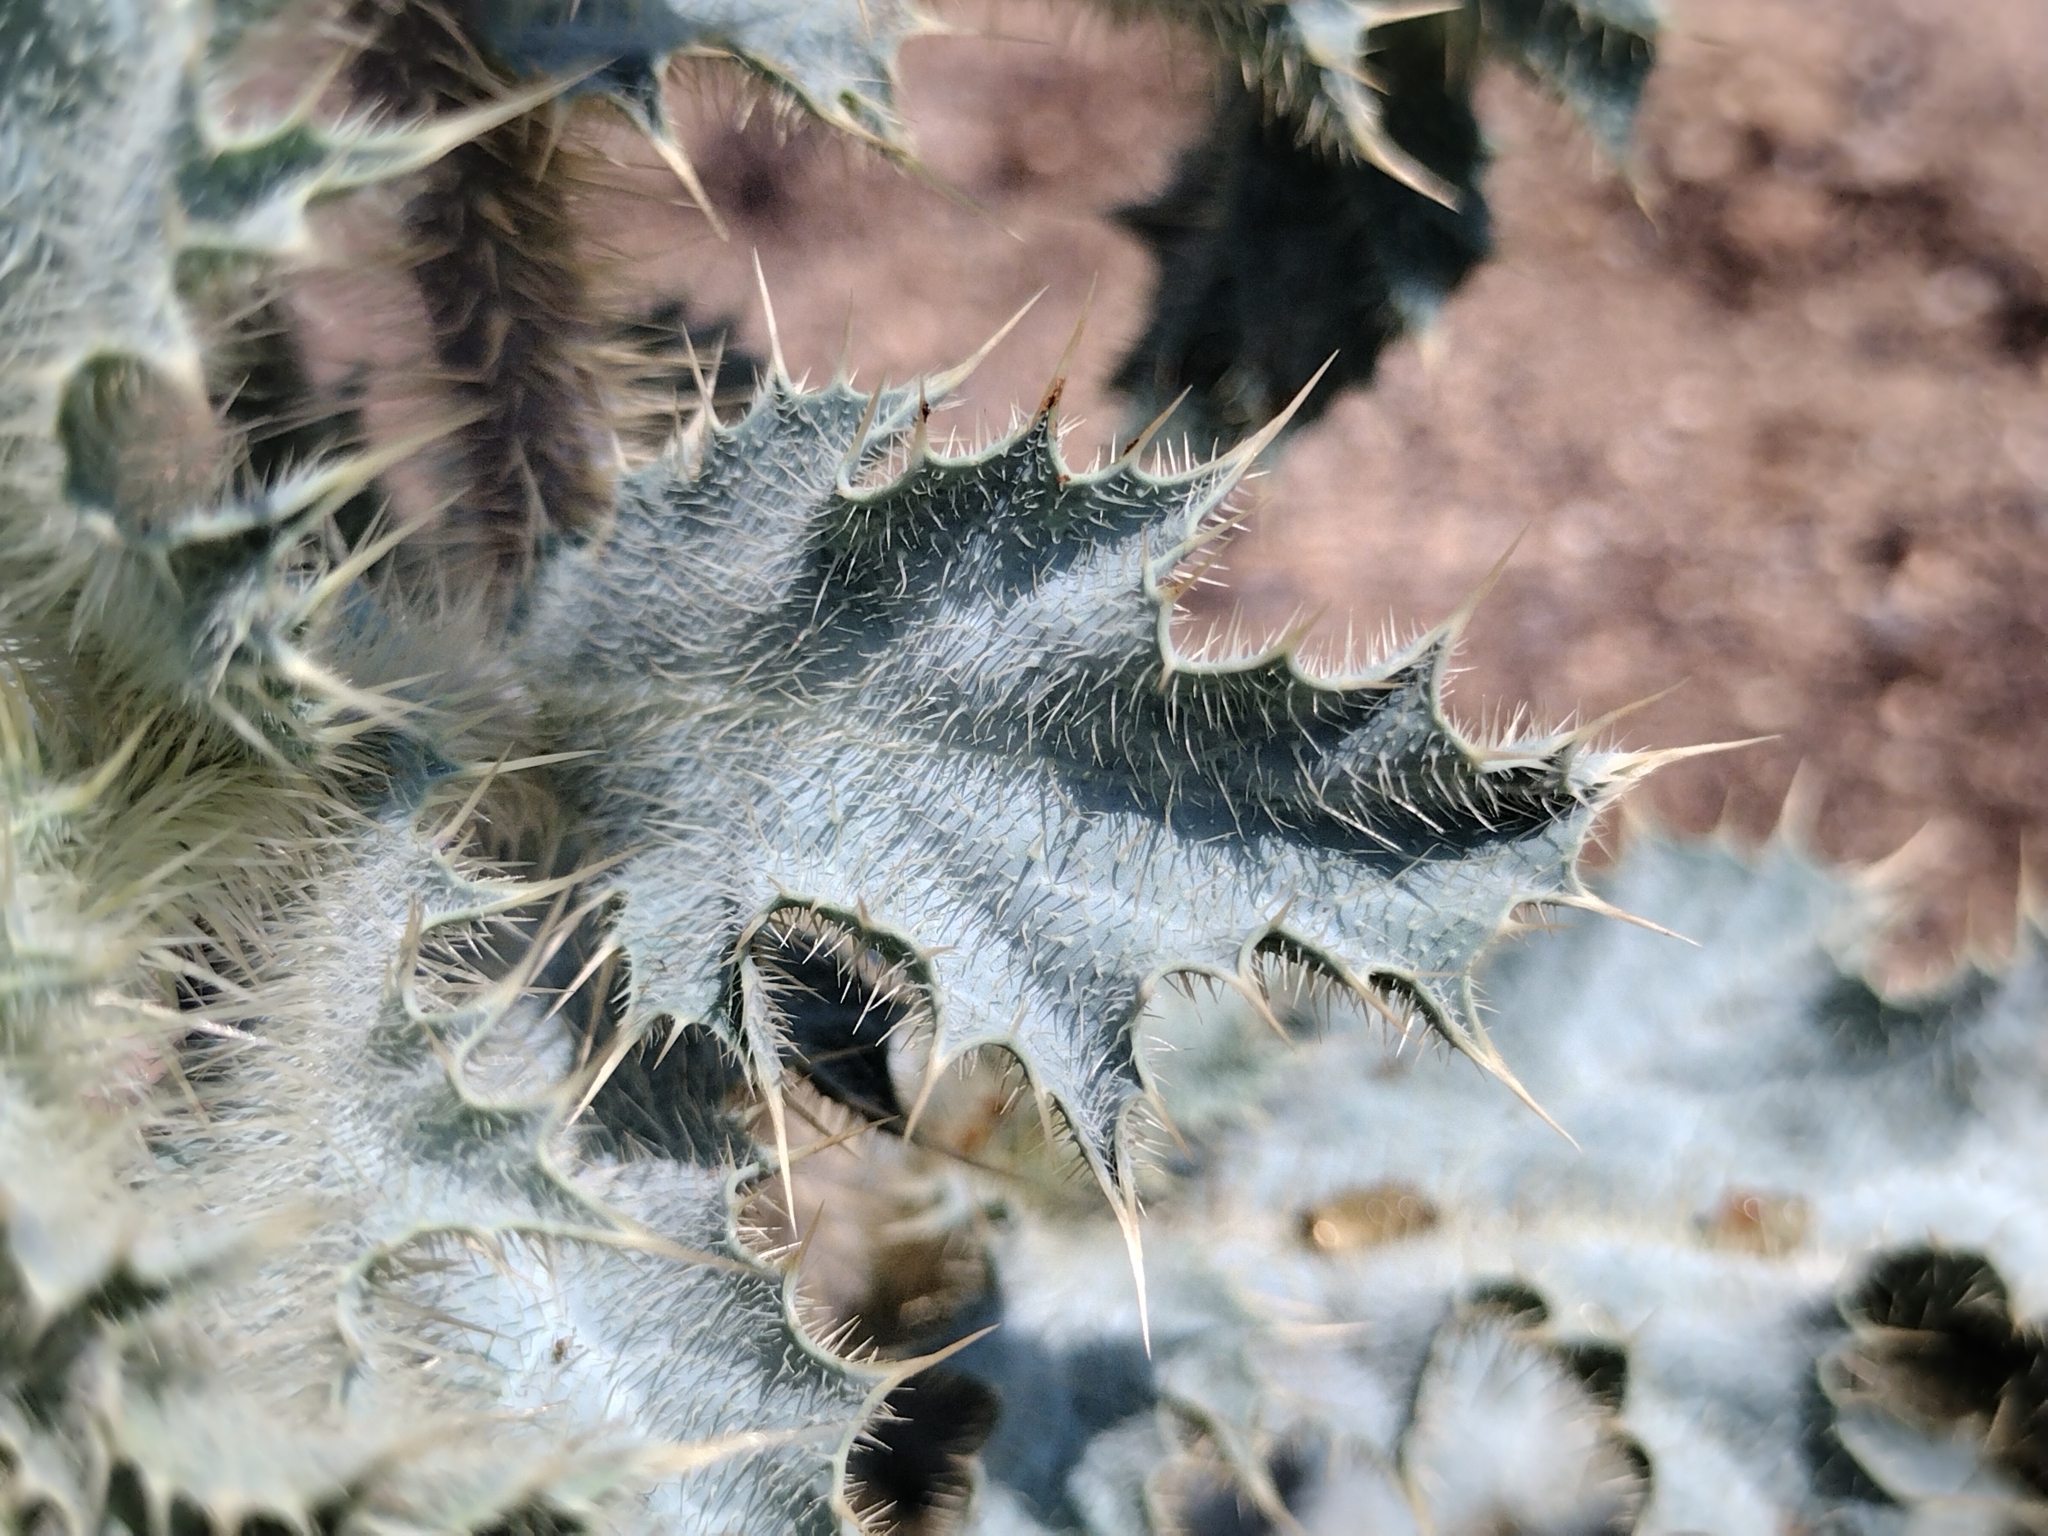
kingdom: Plantae
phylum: Tracheophyta
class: Magnoliopsida
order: Ranunculales
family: Papaveraceae
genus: Argemone
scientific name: Argemone munita
